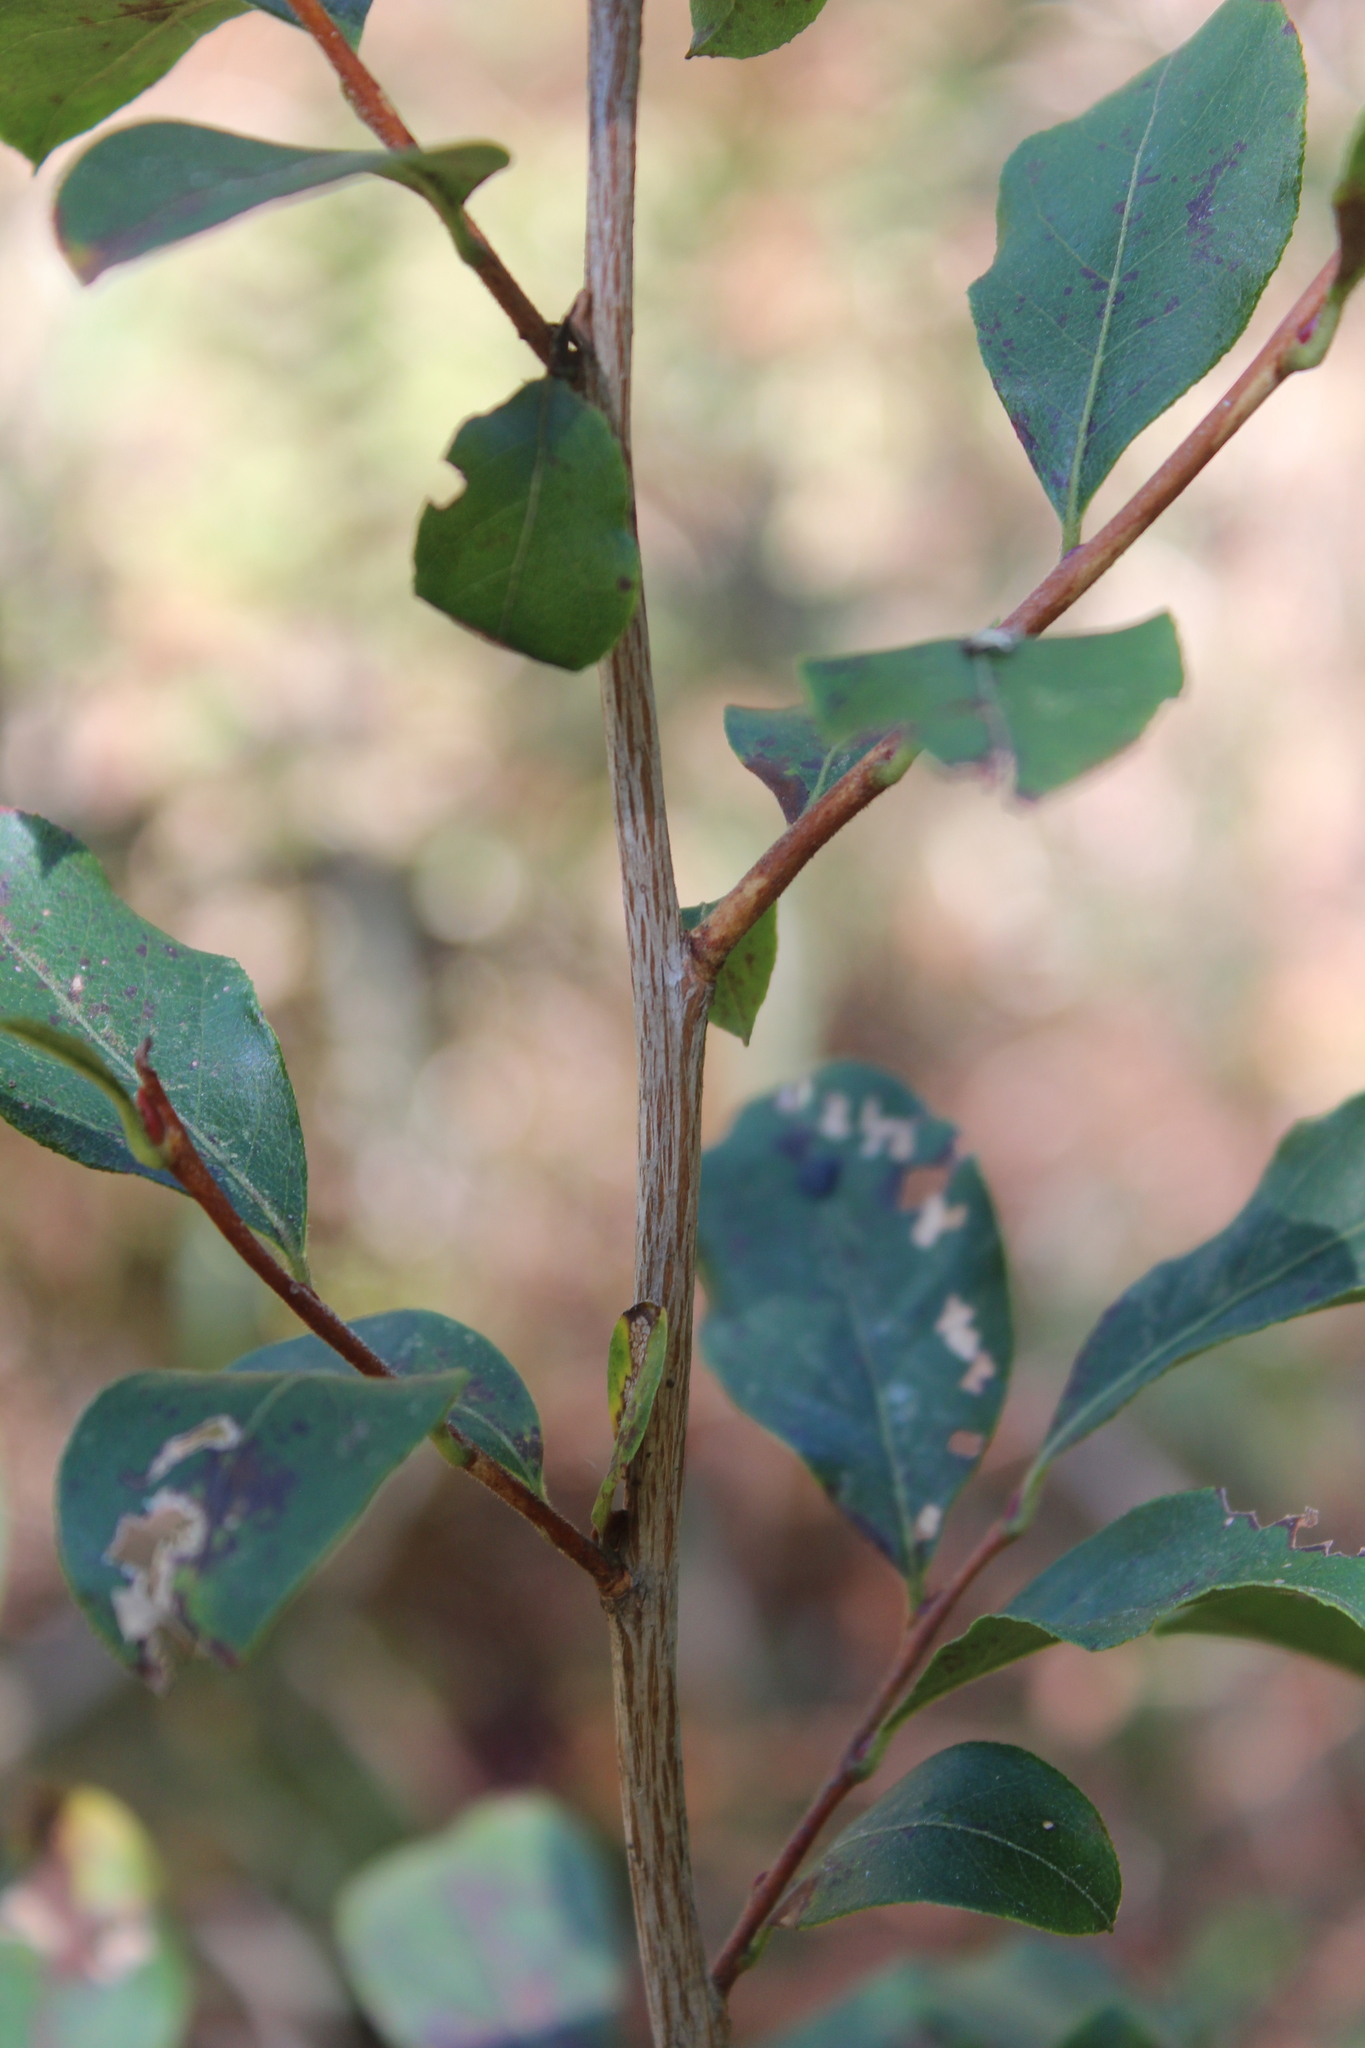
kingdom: Plantae
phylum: Tracheophyta
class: Magnoliopsida
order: Ericales
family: Ericaceae
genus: Lyonia
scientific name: Lyonia ligustrina
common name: Maleberry
